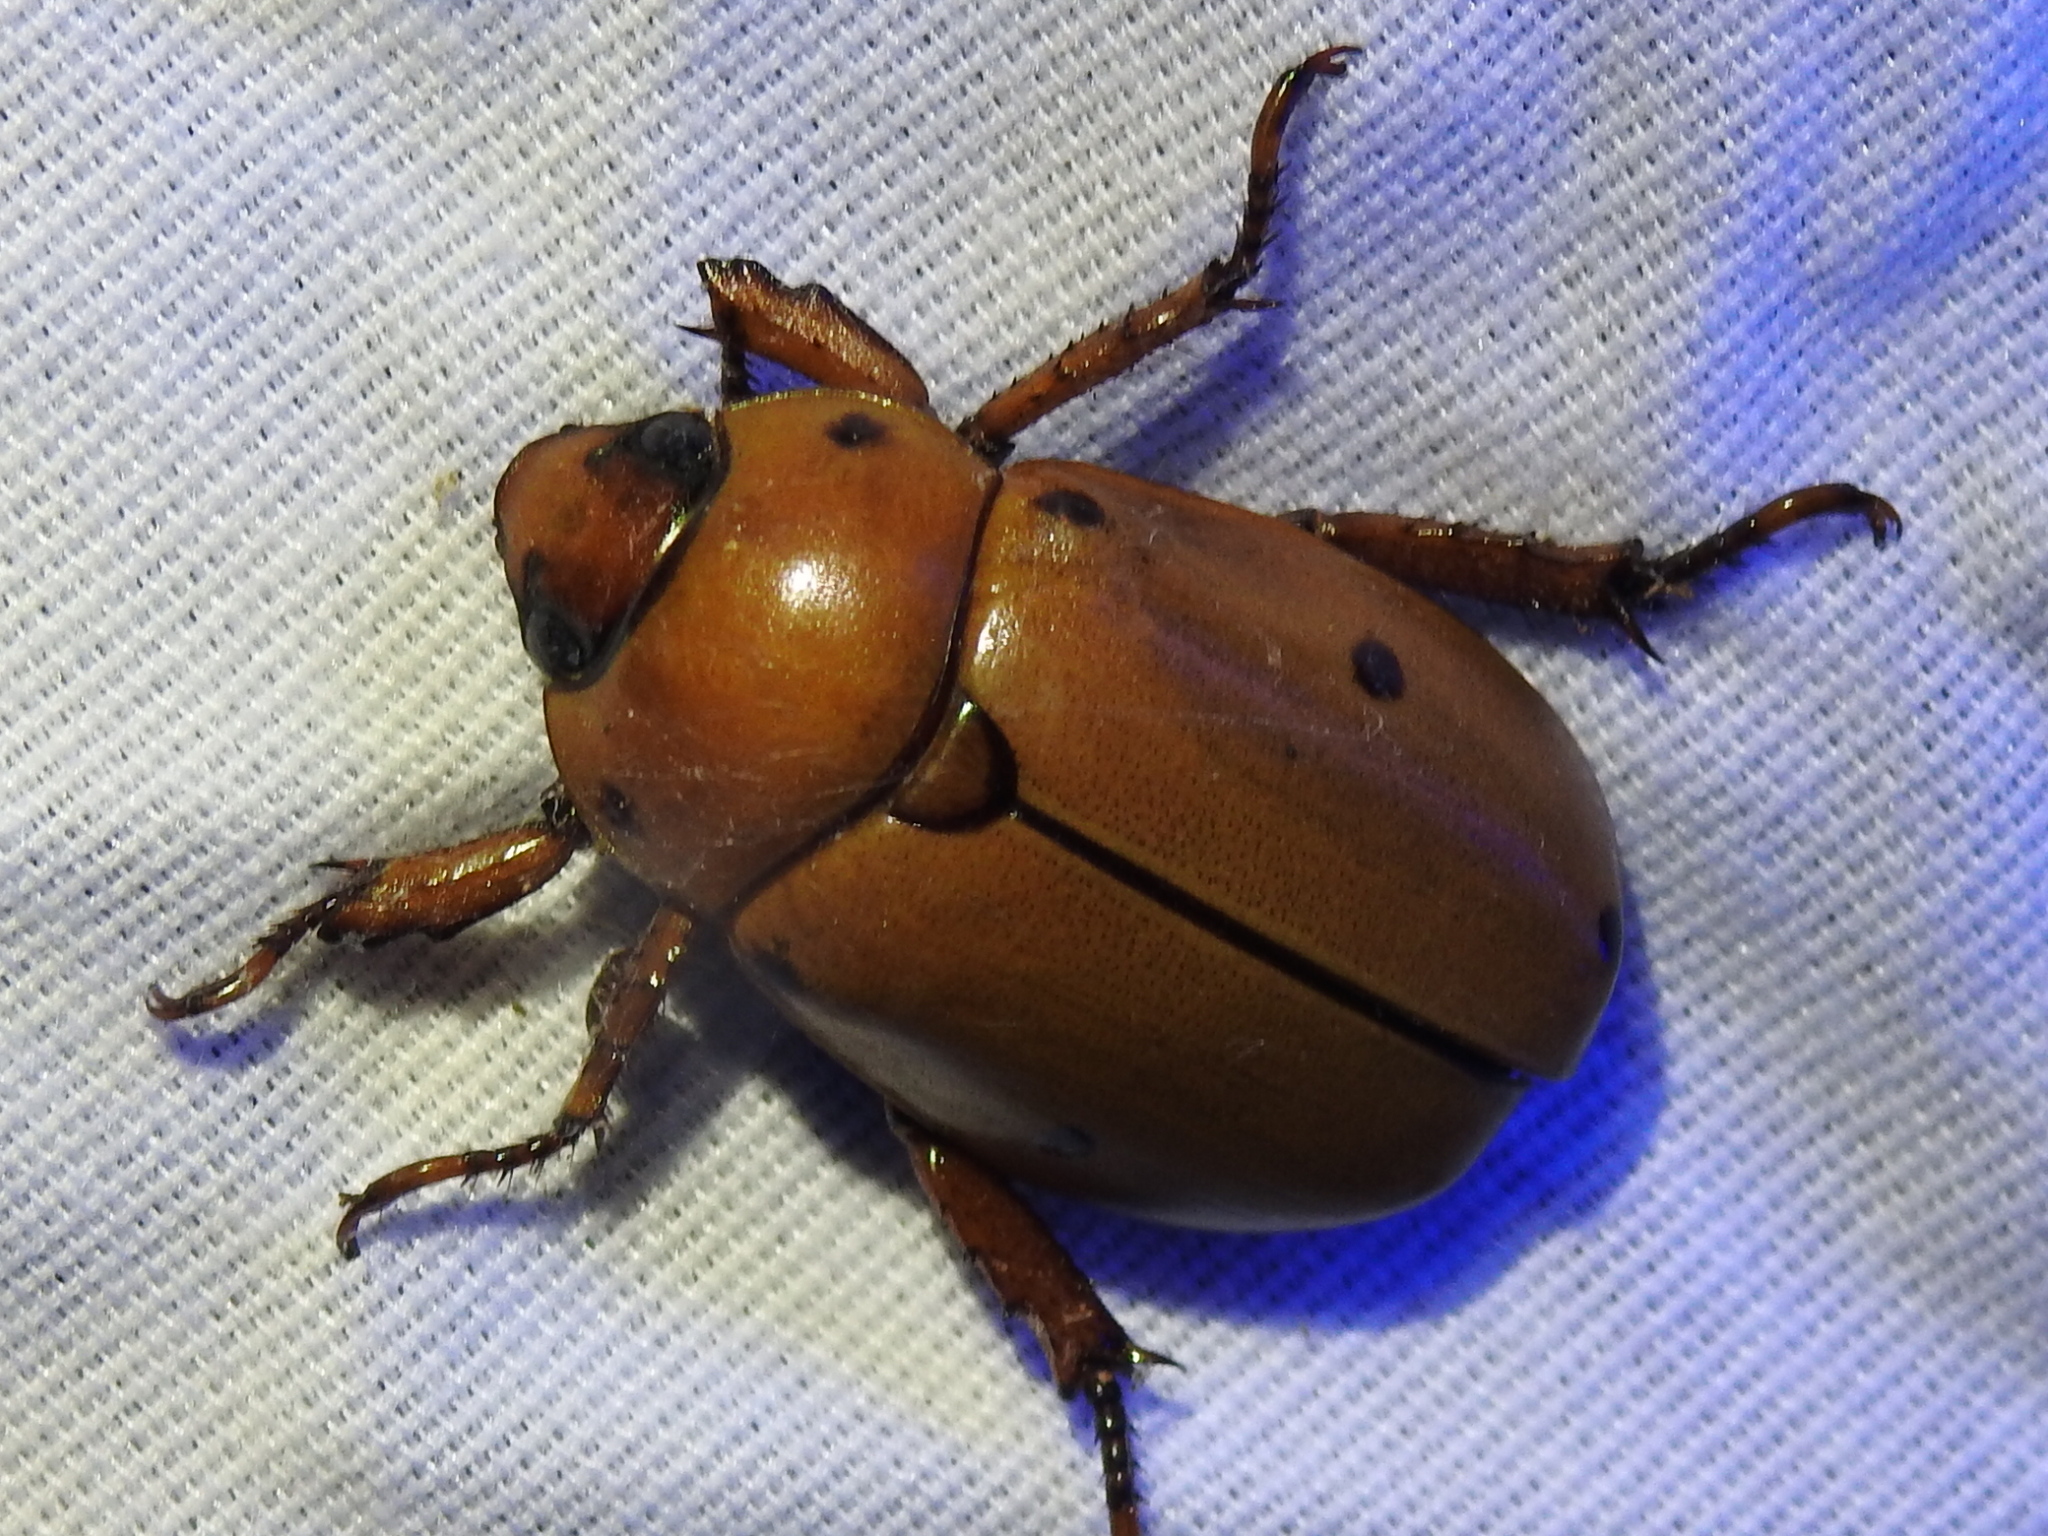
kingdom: Animalia
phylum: Arthropoda
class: Insecta
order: Coleoptera
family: Scarabaeidae
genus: Pelidnota
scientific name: Pelidnota punctata
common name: Grapevine beetle
